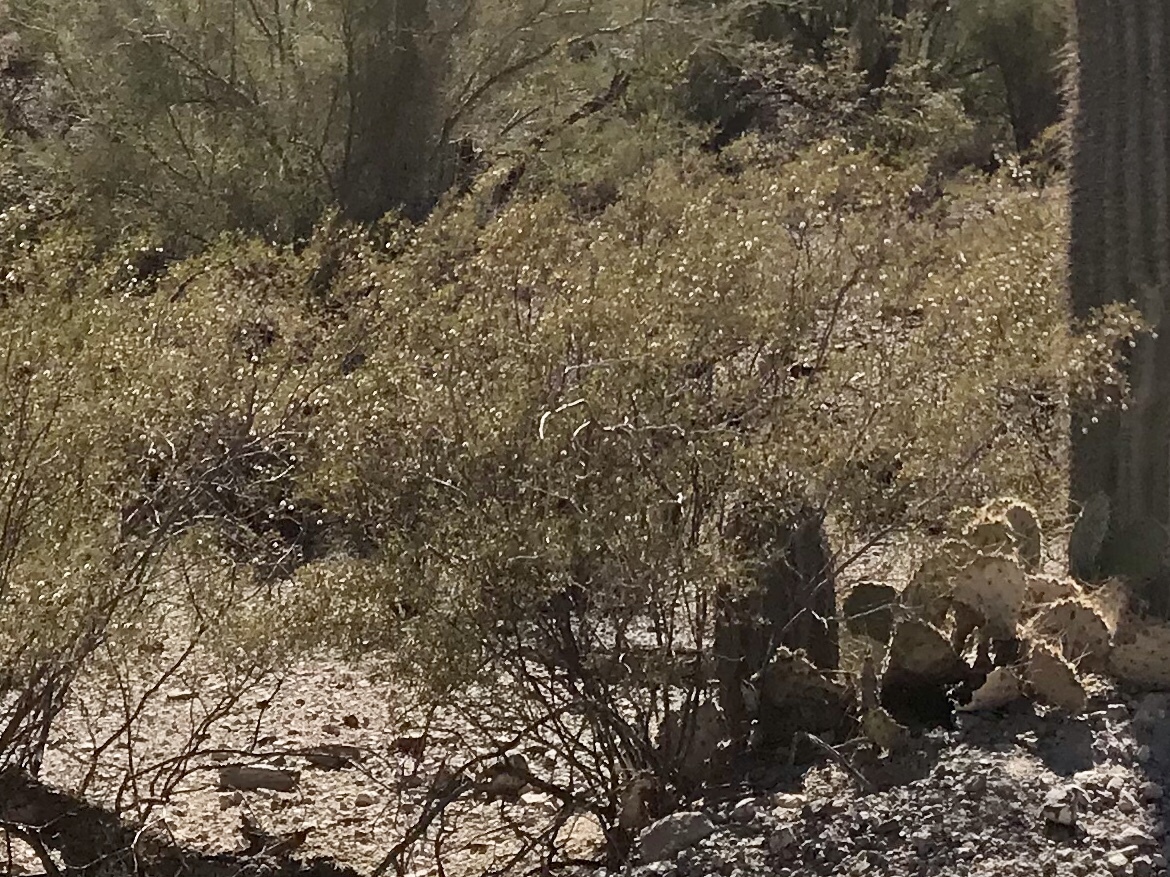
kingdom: Plantae
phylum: Tracheophyta
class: Magnoliopsida
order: Zygophyllales
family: Zygophyllaceae
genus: Larrea
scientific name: Larrea tridentata
